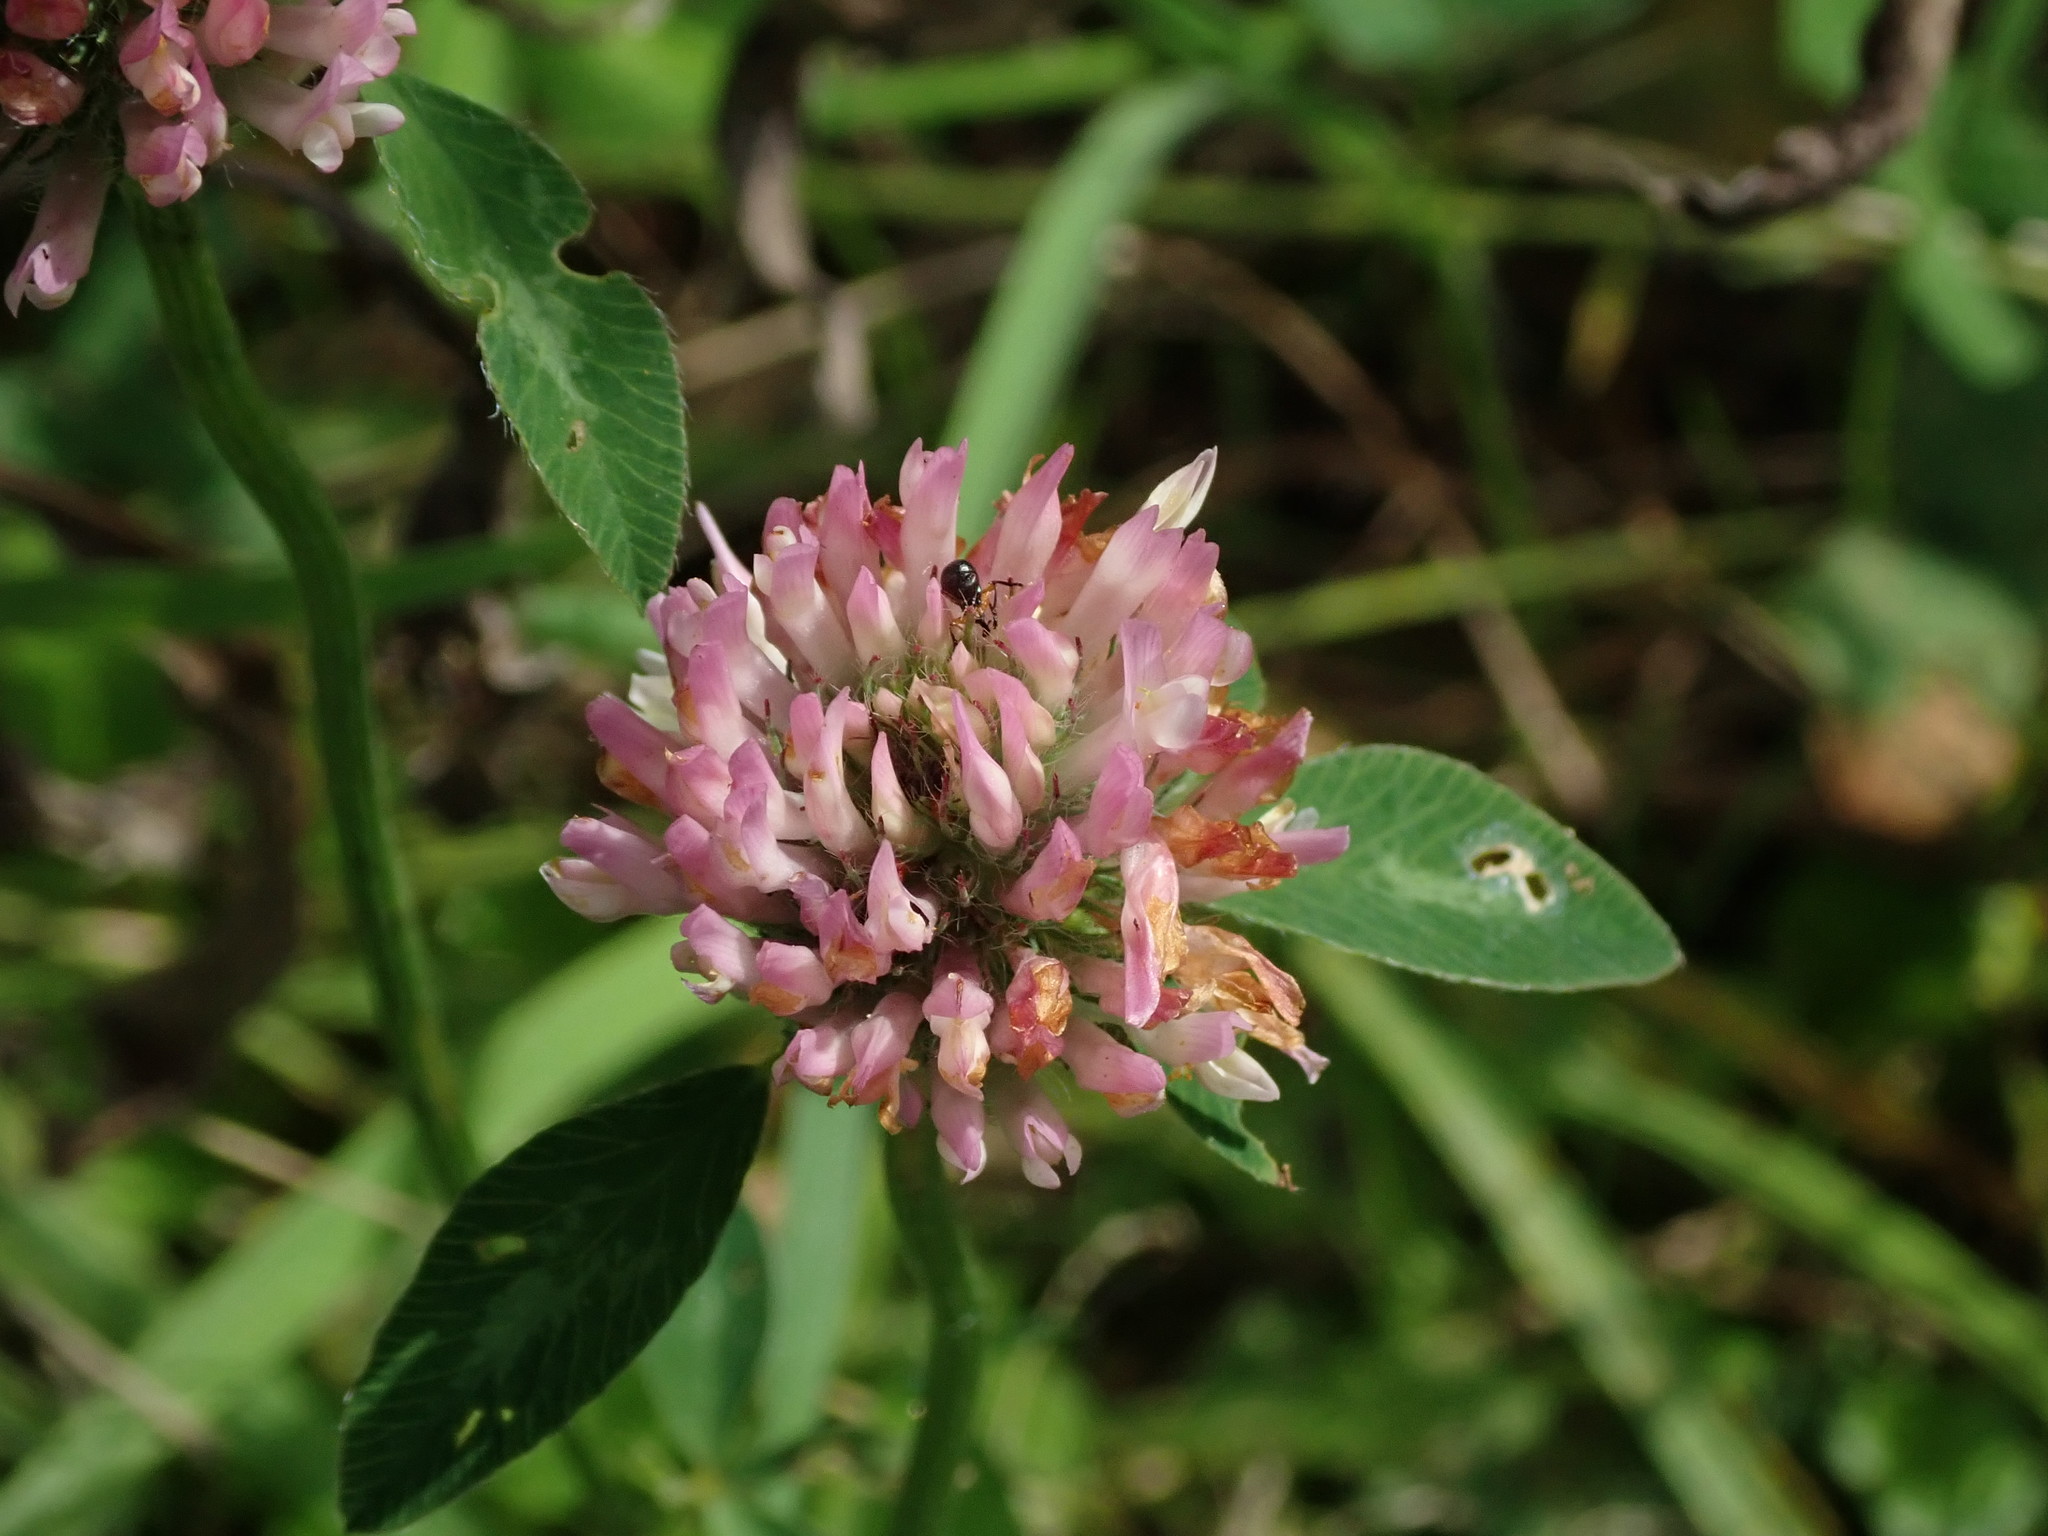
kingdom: Plantae
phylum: Tracheophyta
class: Magnoliopsida
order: Fabales
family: Fabaceae
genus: Trifolium
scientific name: Trifolium pratense
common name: Red clover
